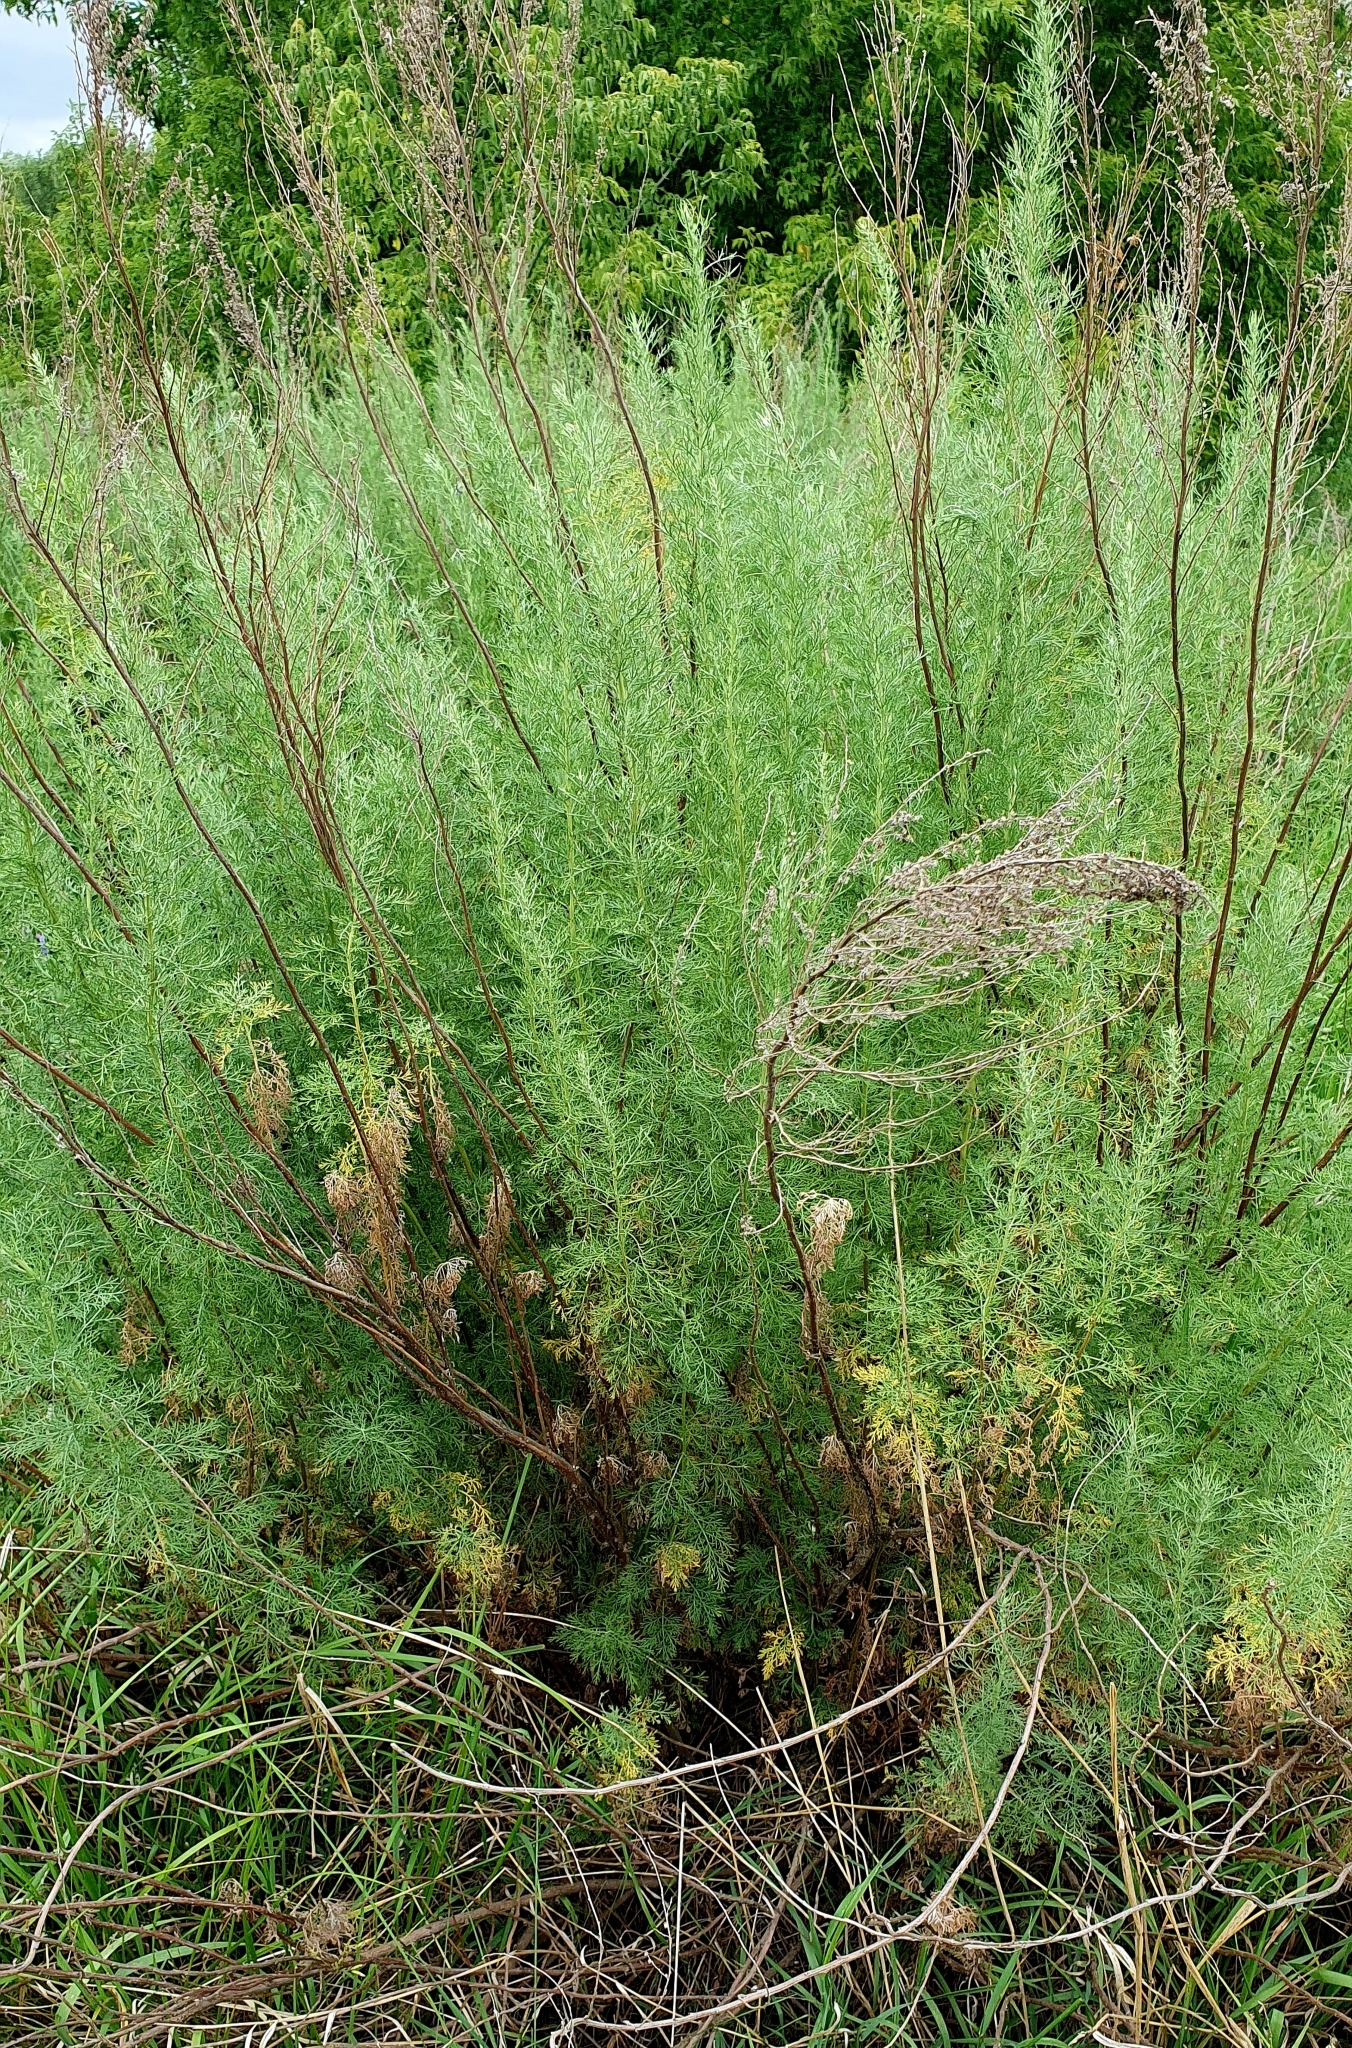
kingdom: Plantae
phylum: Tracheophyta
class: Magnoliopsida
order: Asterales
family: Asteraceae
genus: Artemisia
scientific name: Artemisia abrotanum
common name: Southernwood
